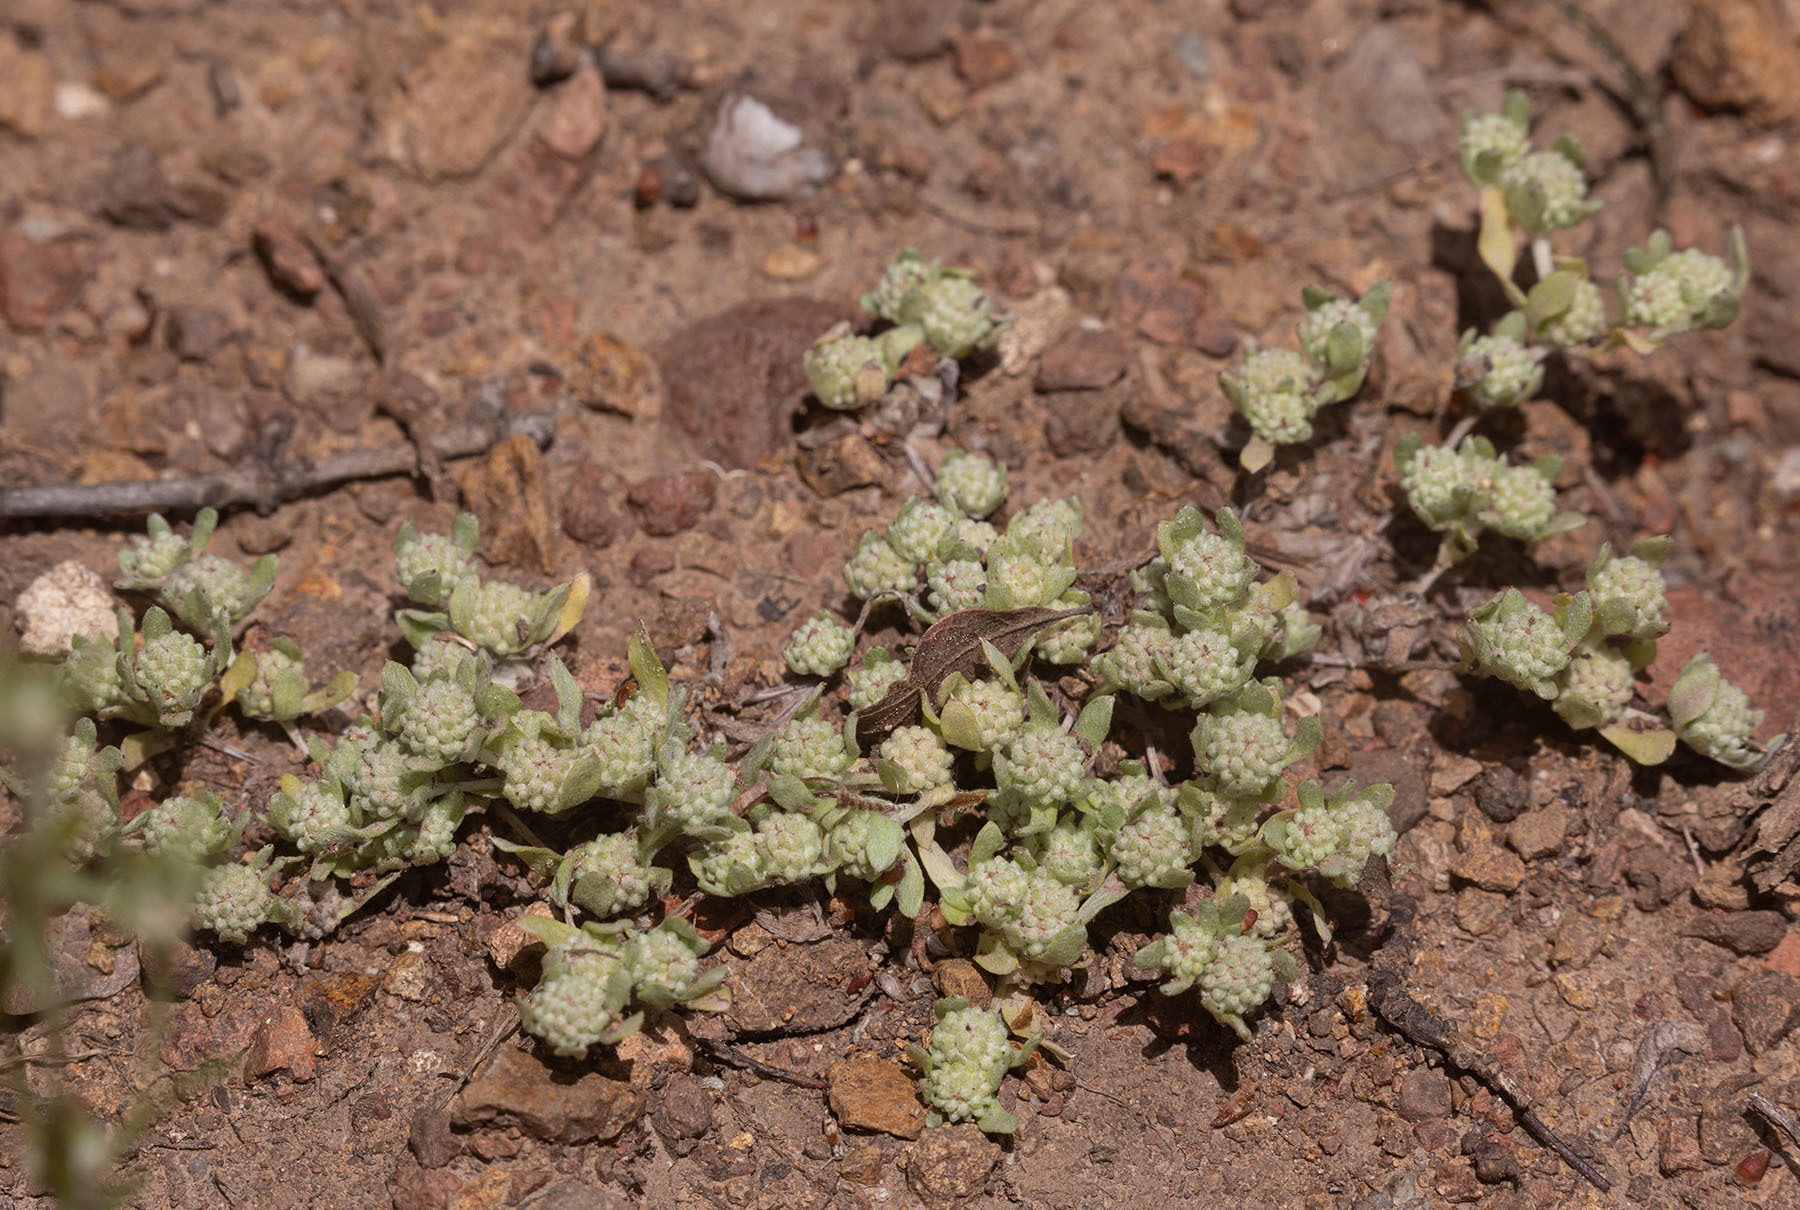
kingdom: Plantae
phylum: Tracheophyta
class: Magnoliopsida
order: Asterales
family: Asteraceae
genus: Psilocarphus
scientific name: Psilocarphus tenellus
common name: Slender woolly-marbles
